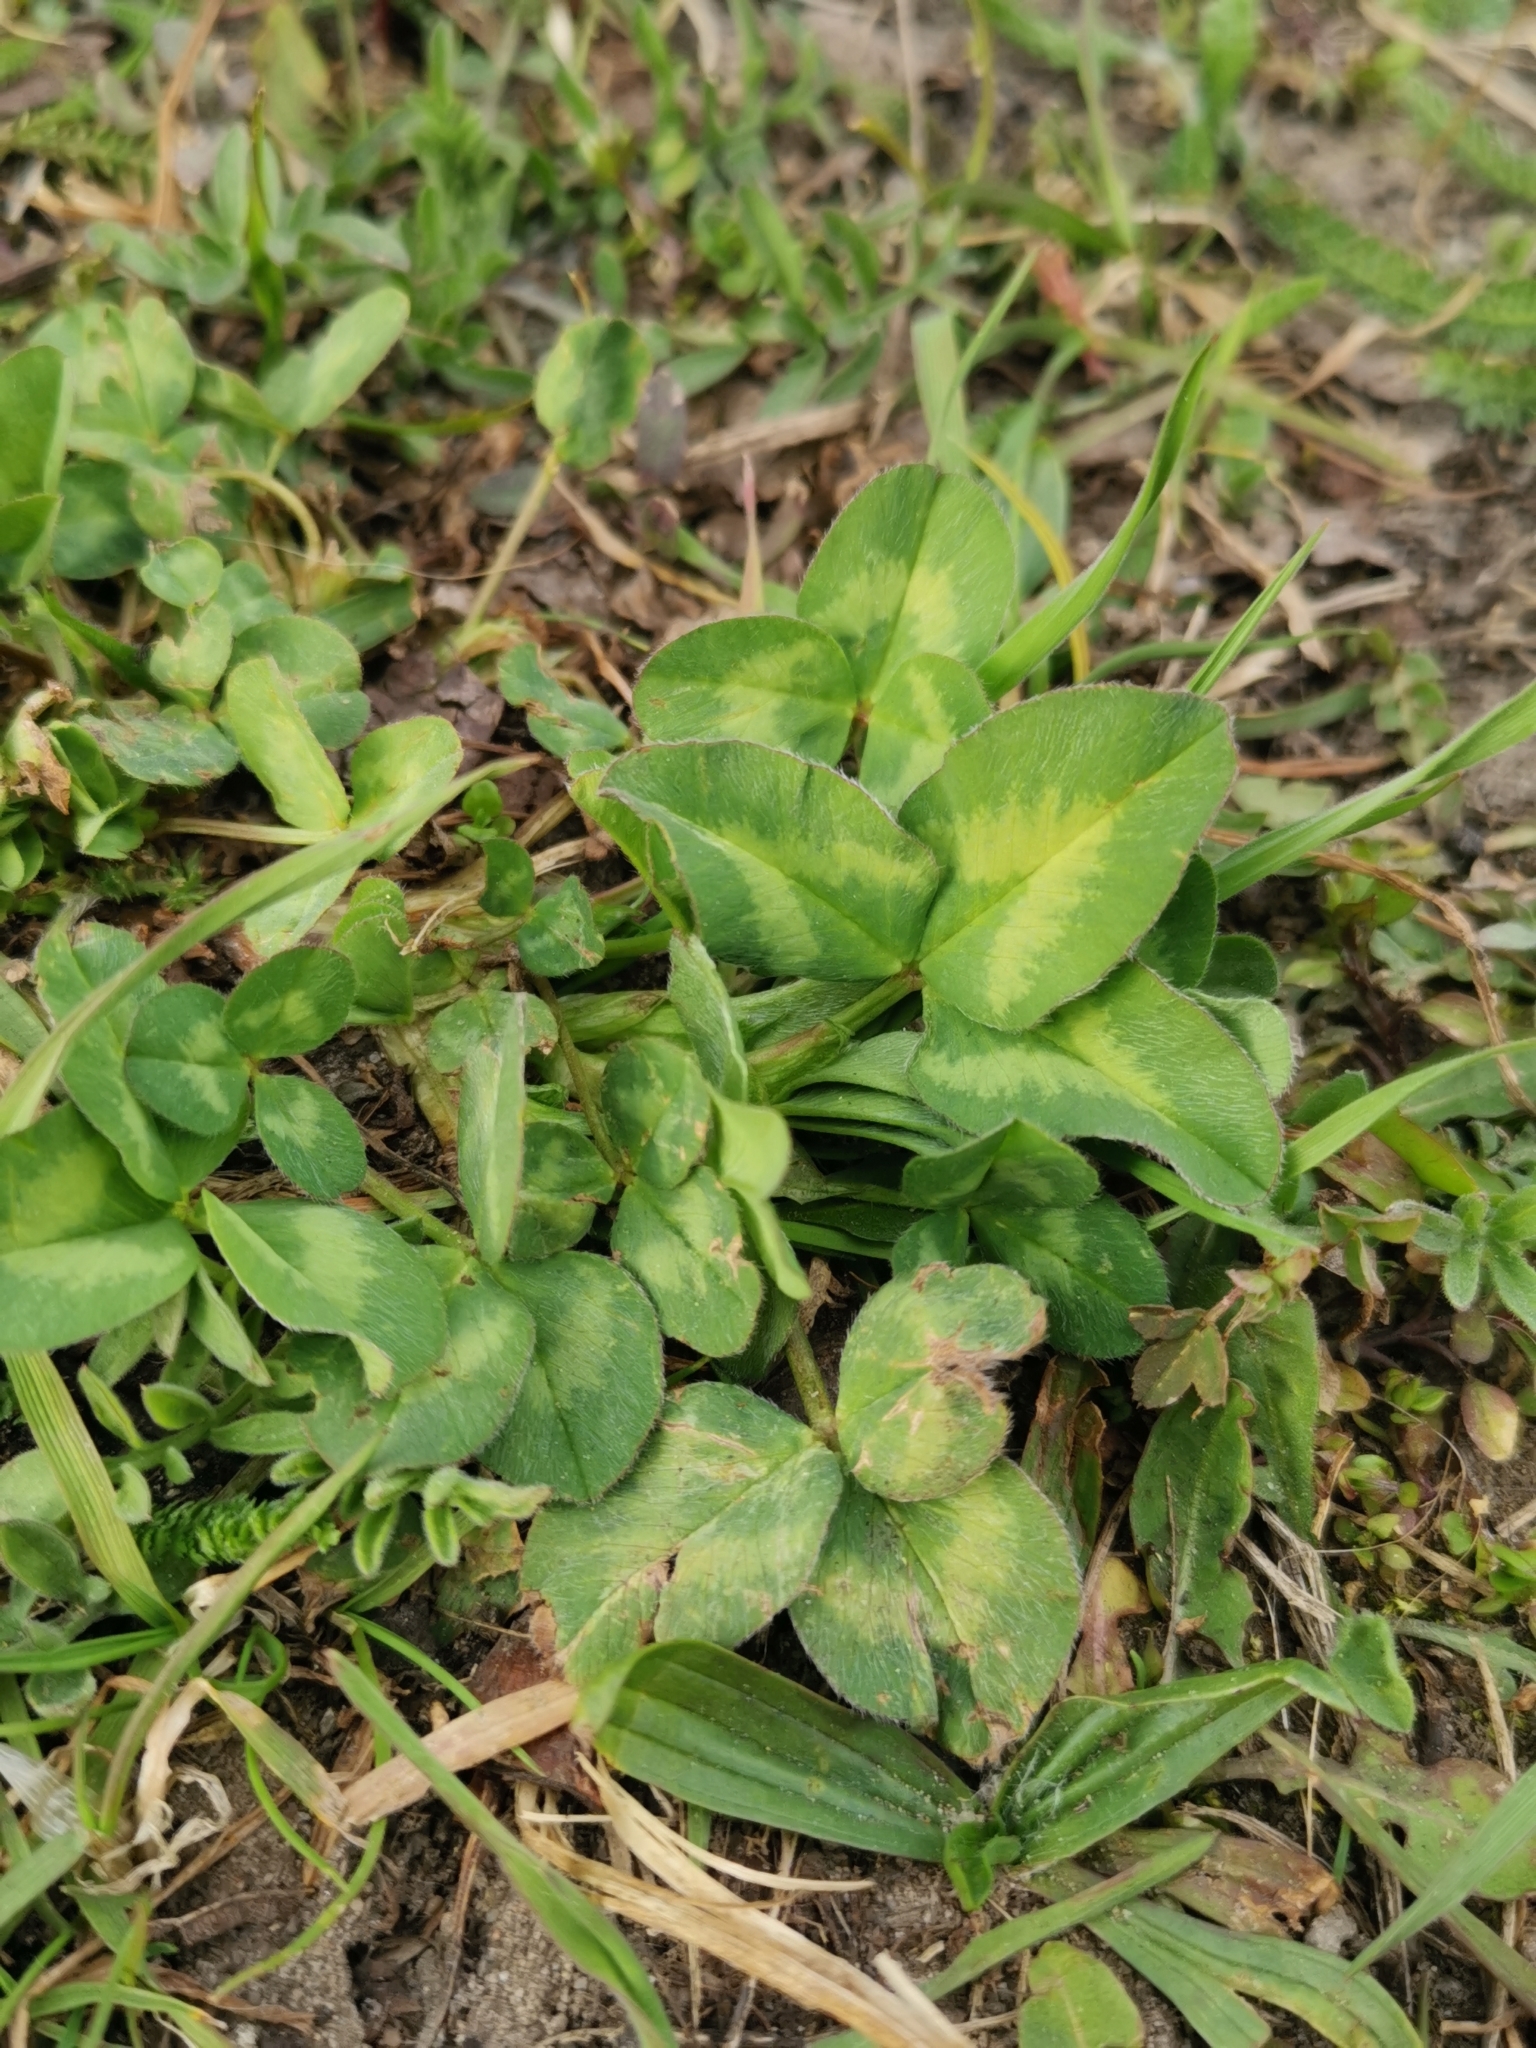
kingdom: Plantae
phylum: Tracheophyta
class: Magnoliopsida
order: Fabales
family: Fabaceae
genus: Trifolium
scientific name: Trifolium pratense
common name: Red clover
